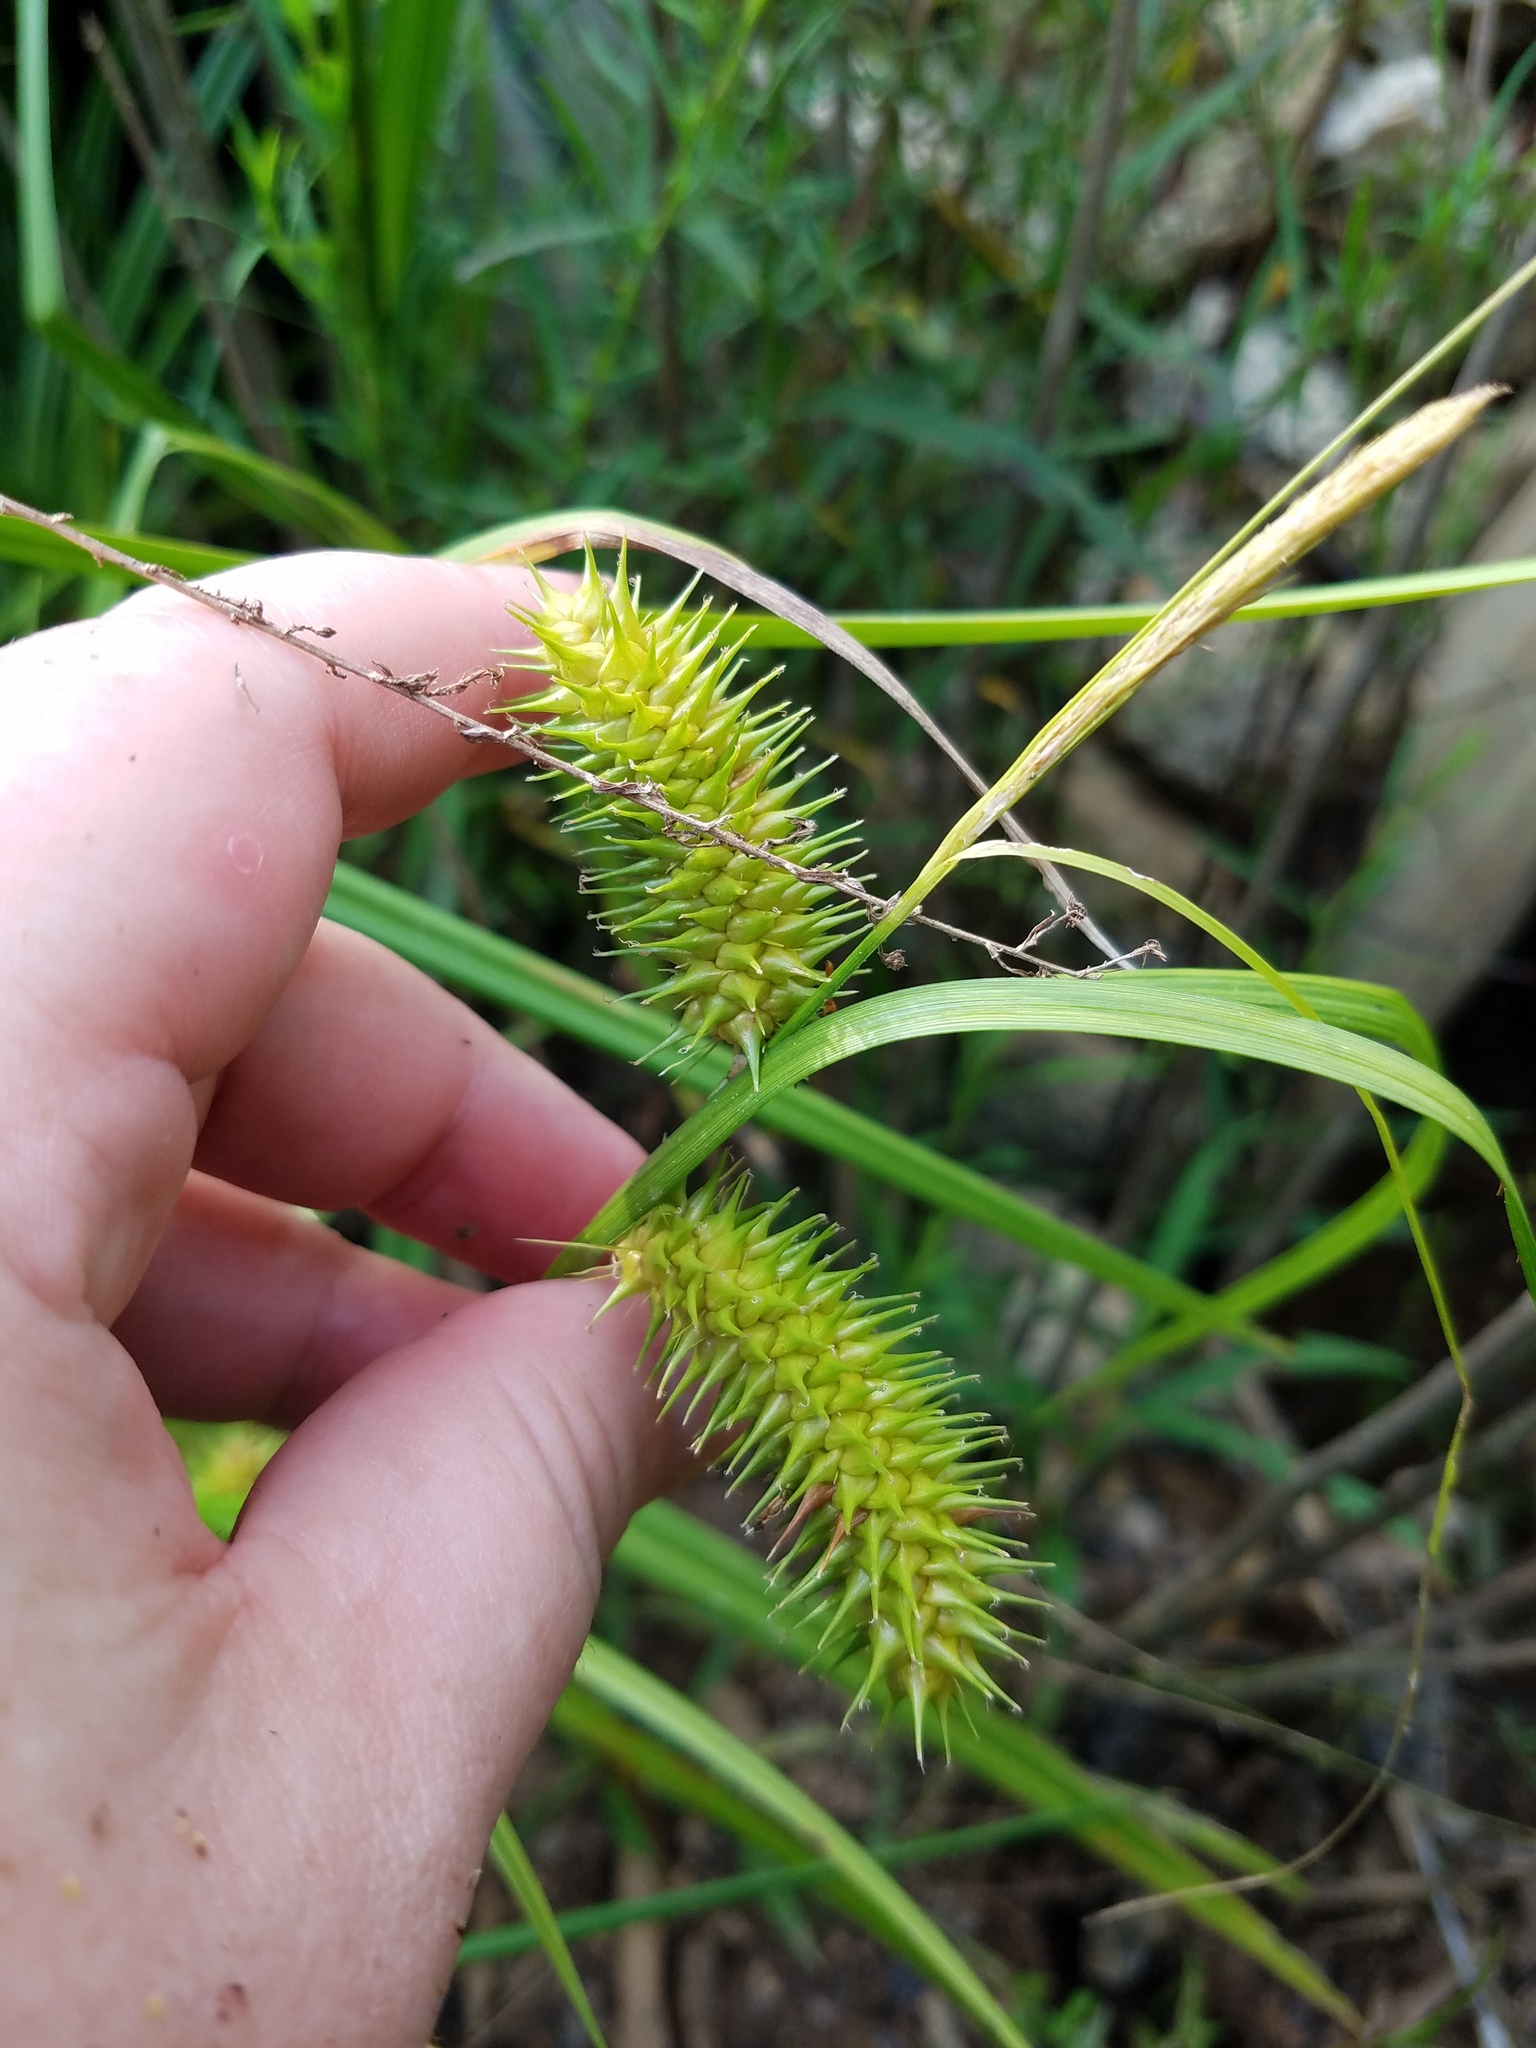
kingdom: Plantae
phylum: Tracheophyta
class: Liliopsida
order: Poales
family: Cyperaceae
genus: Carex
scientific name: Carex lurida
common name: Sallow sedge
